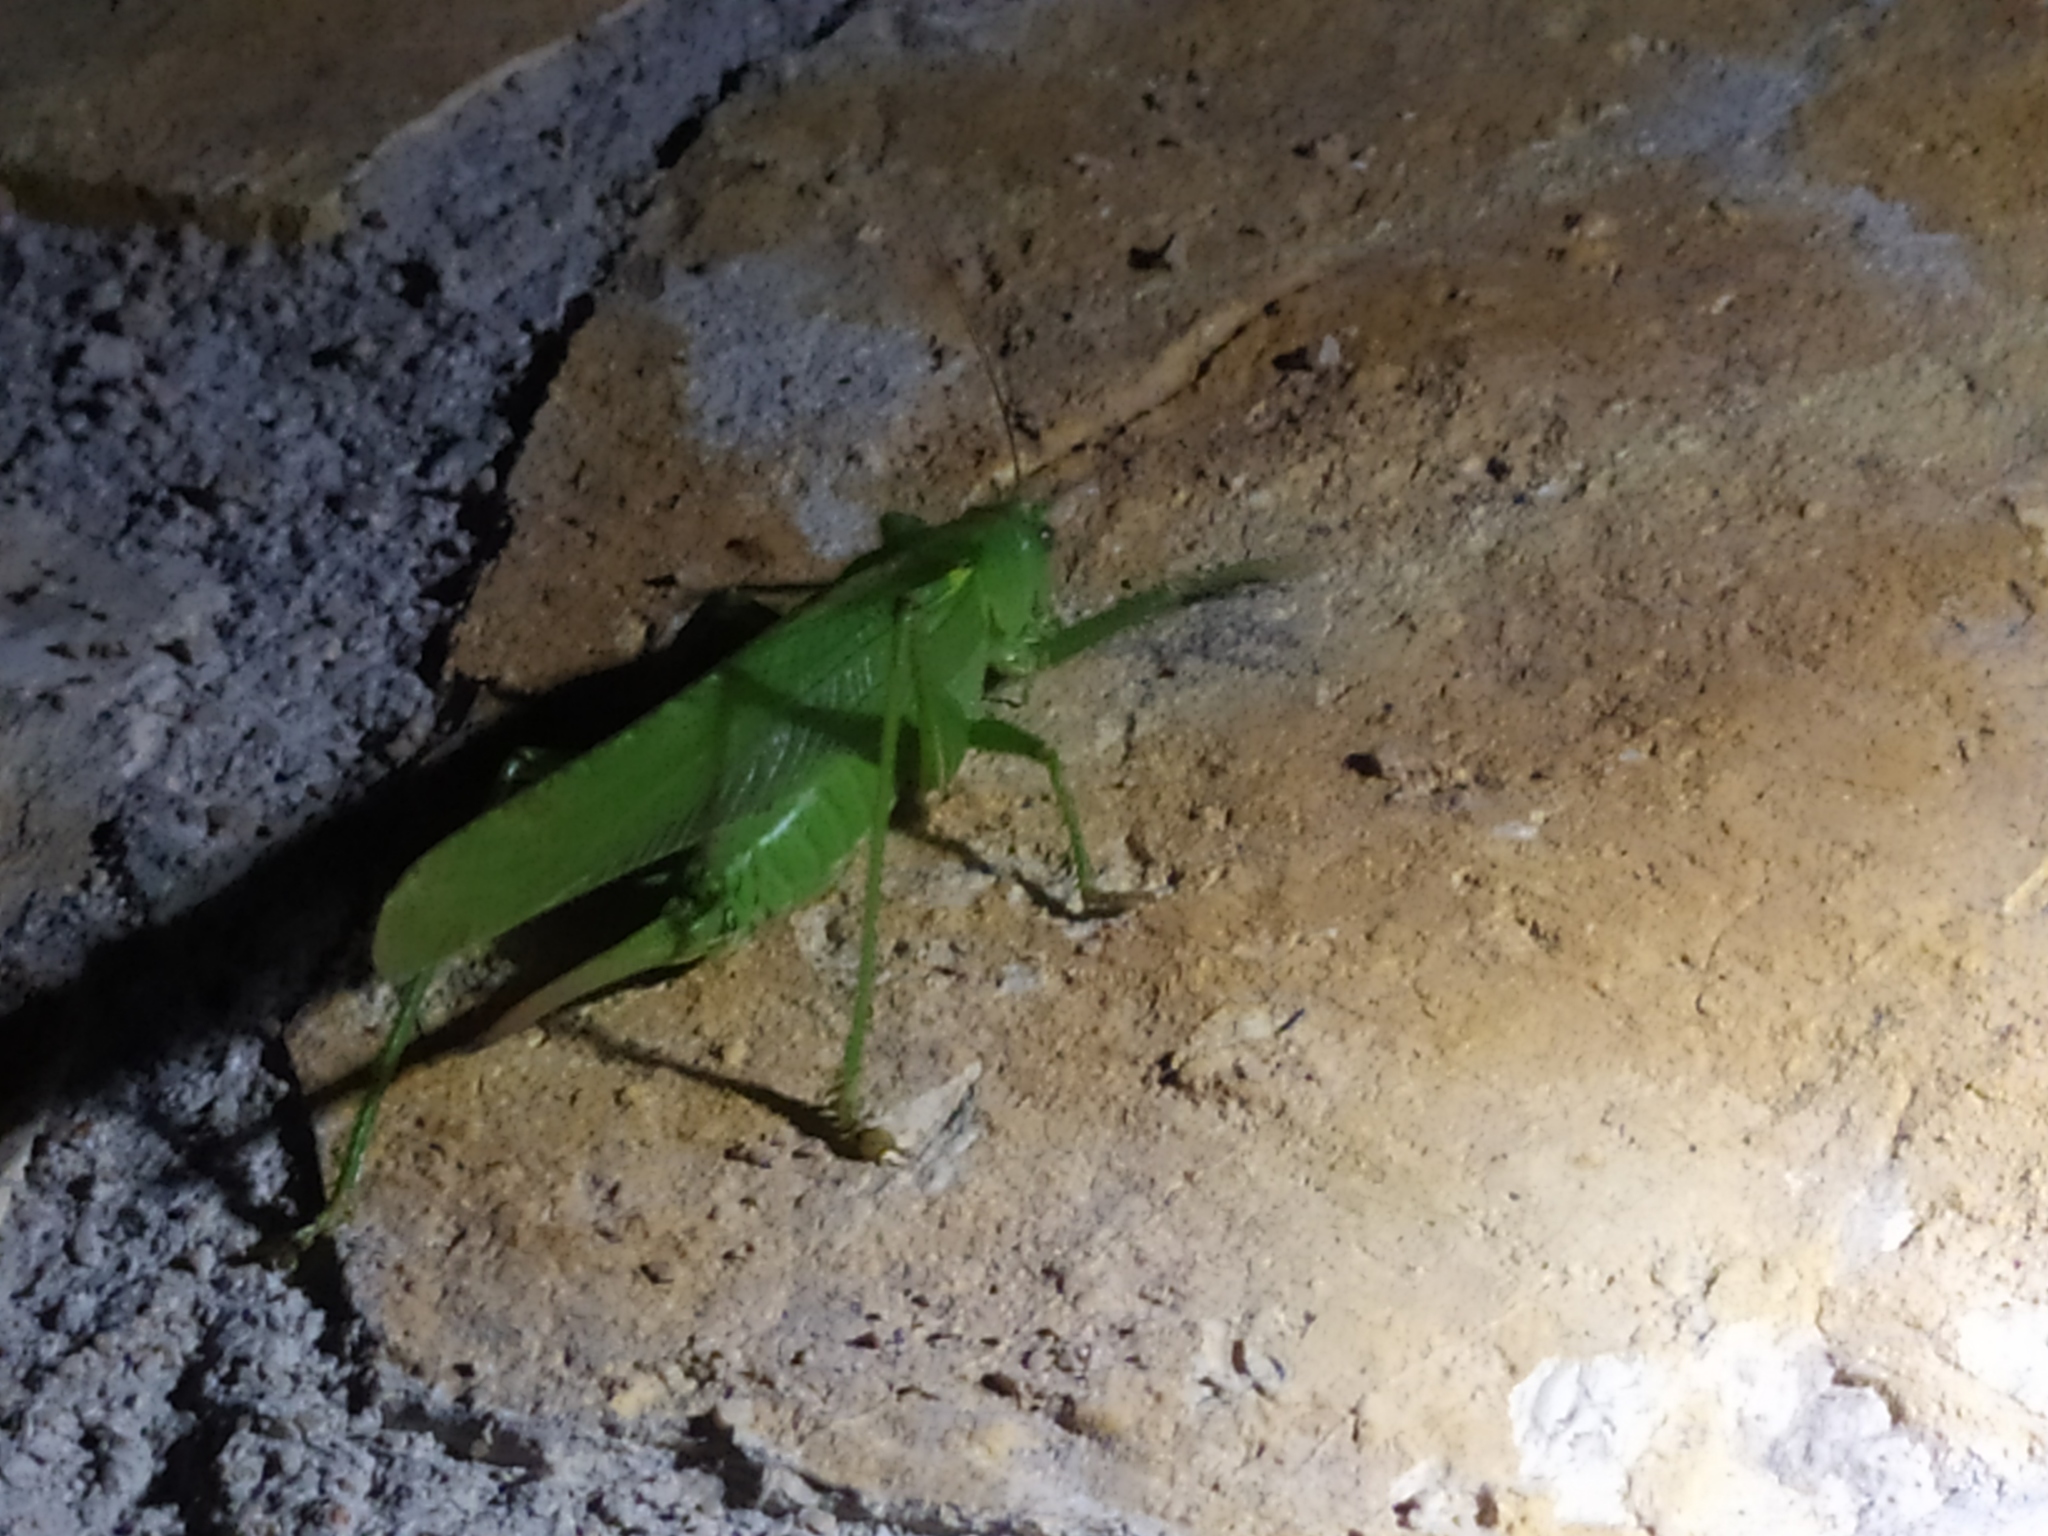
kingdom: Animalia
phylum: Arthropoda
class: Insecta
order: Orthoptera
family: Tettigoniidae
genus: Tettigonia
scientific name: Tettigonia viridissima
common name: Great green bush-cricket
